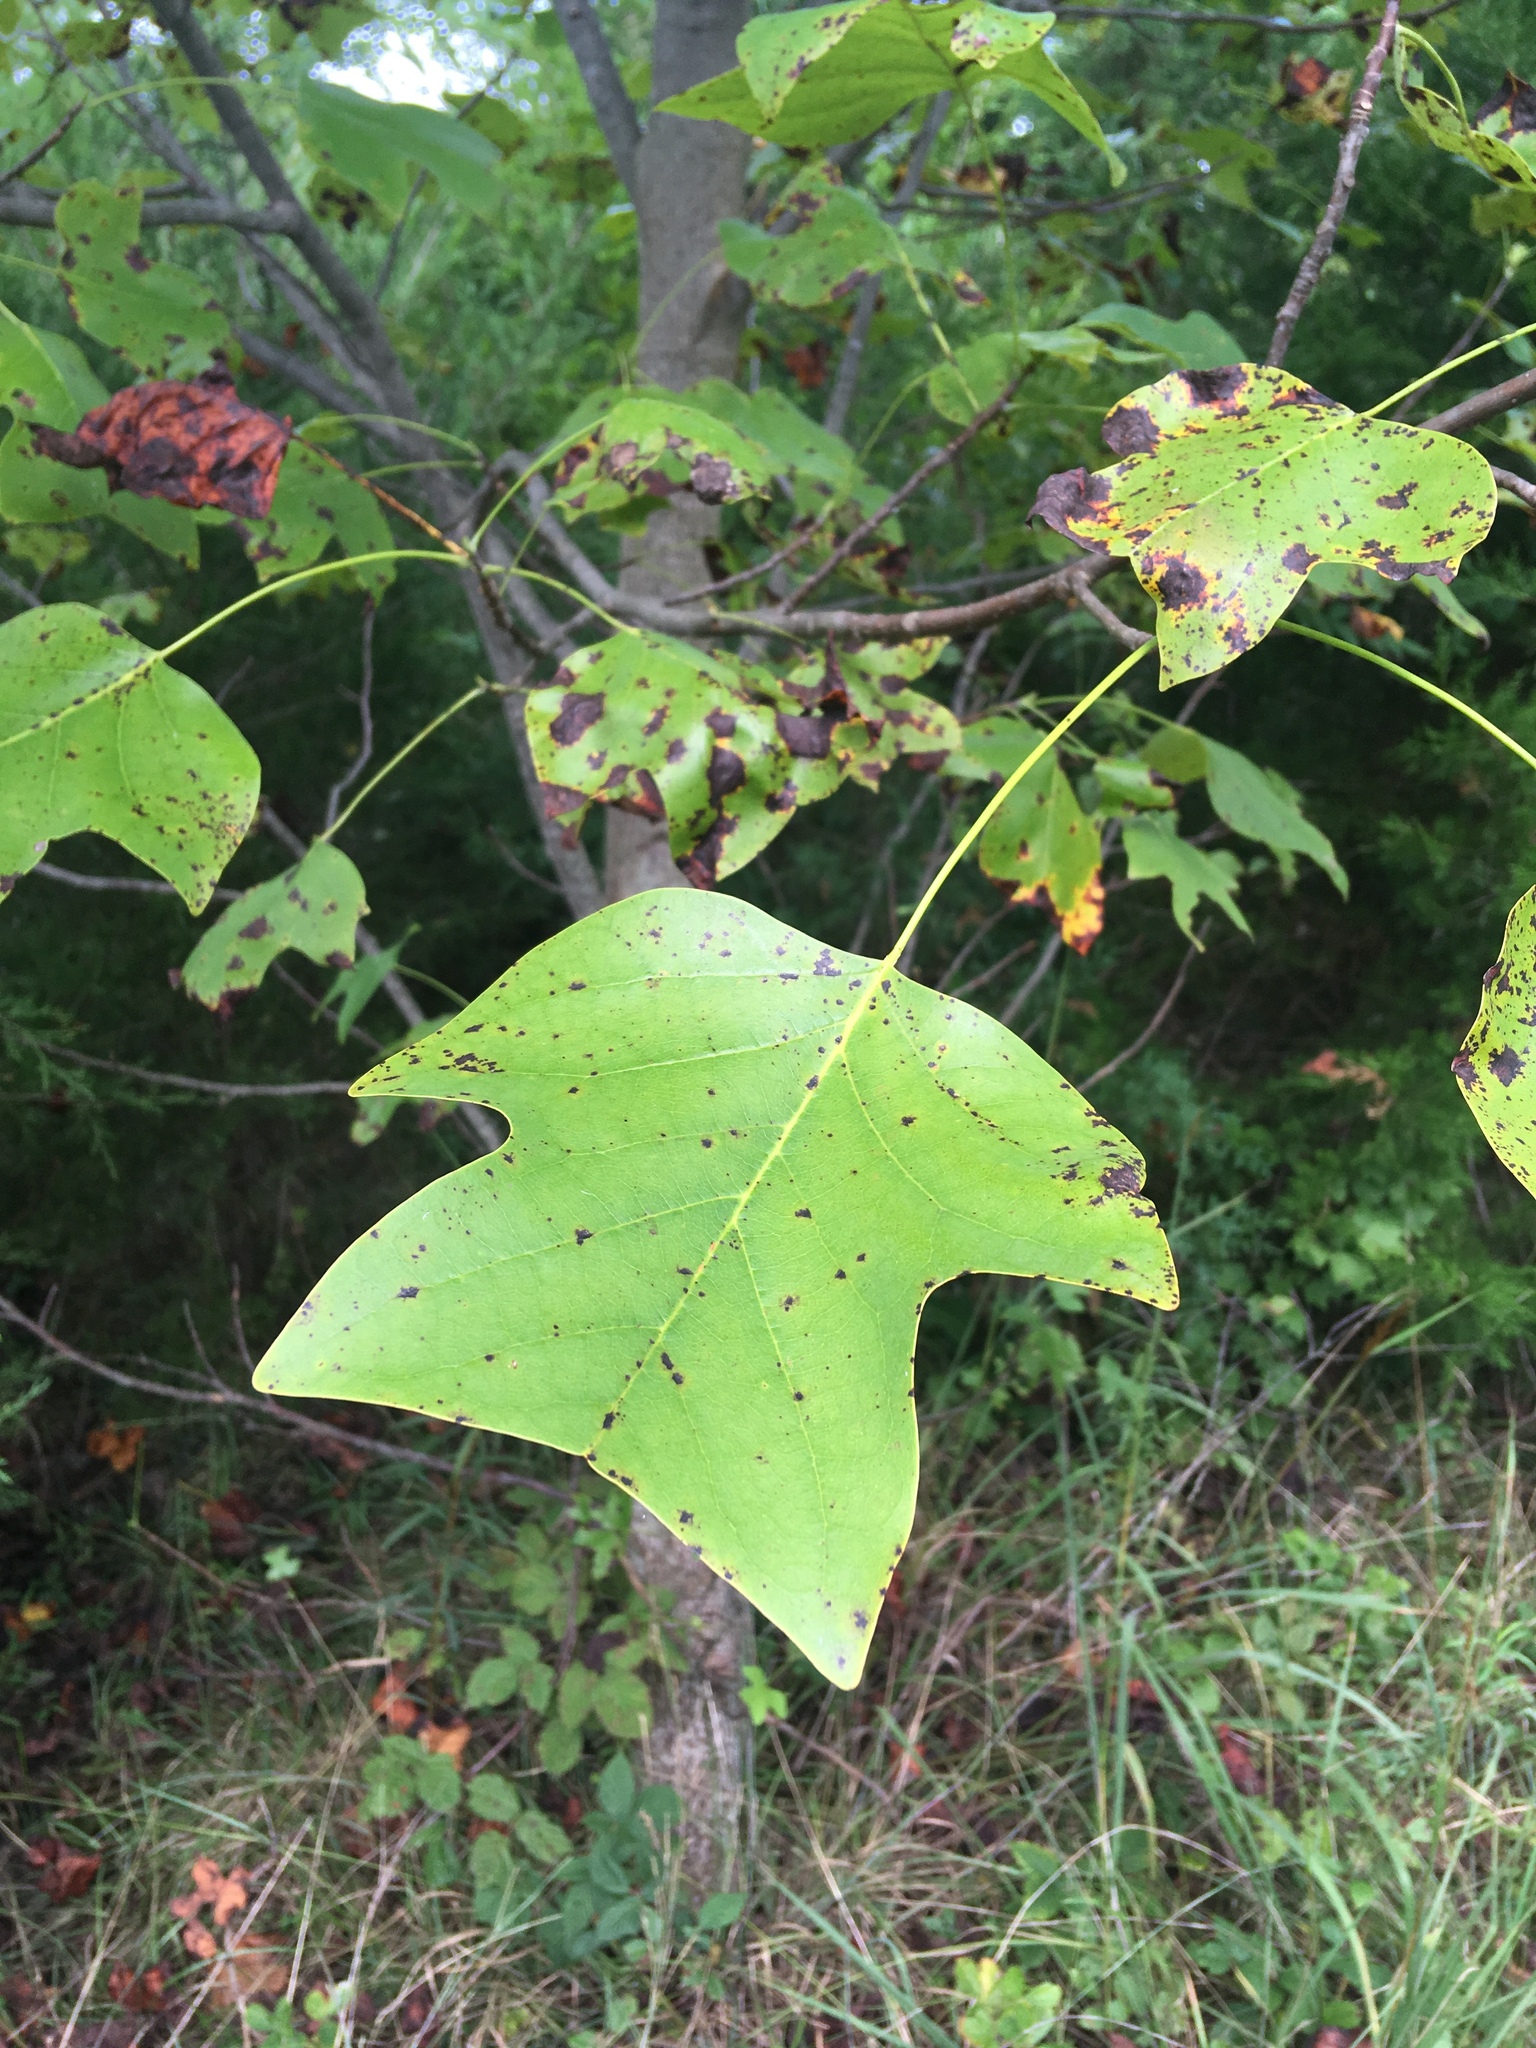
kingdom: Plantae
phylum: Tracheophyta
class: Magnoliopsida
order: Magnoliales
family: Magnoliaceae
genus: Liriodendron
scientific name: Liriodendron tulipifera
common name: Tulip tree
